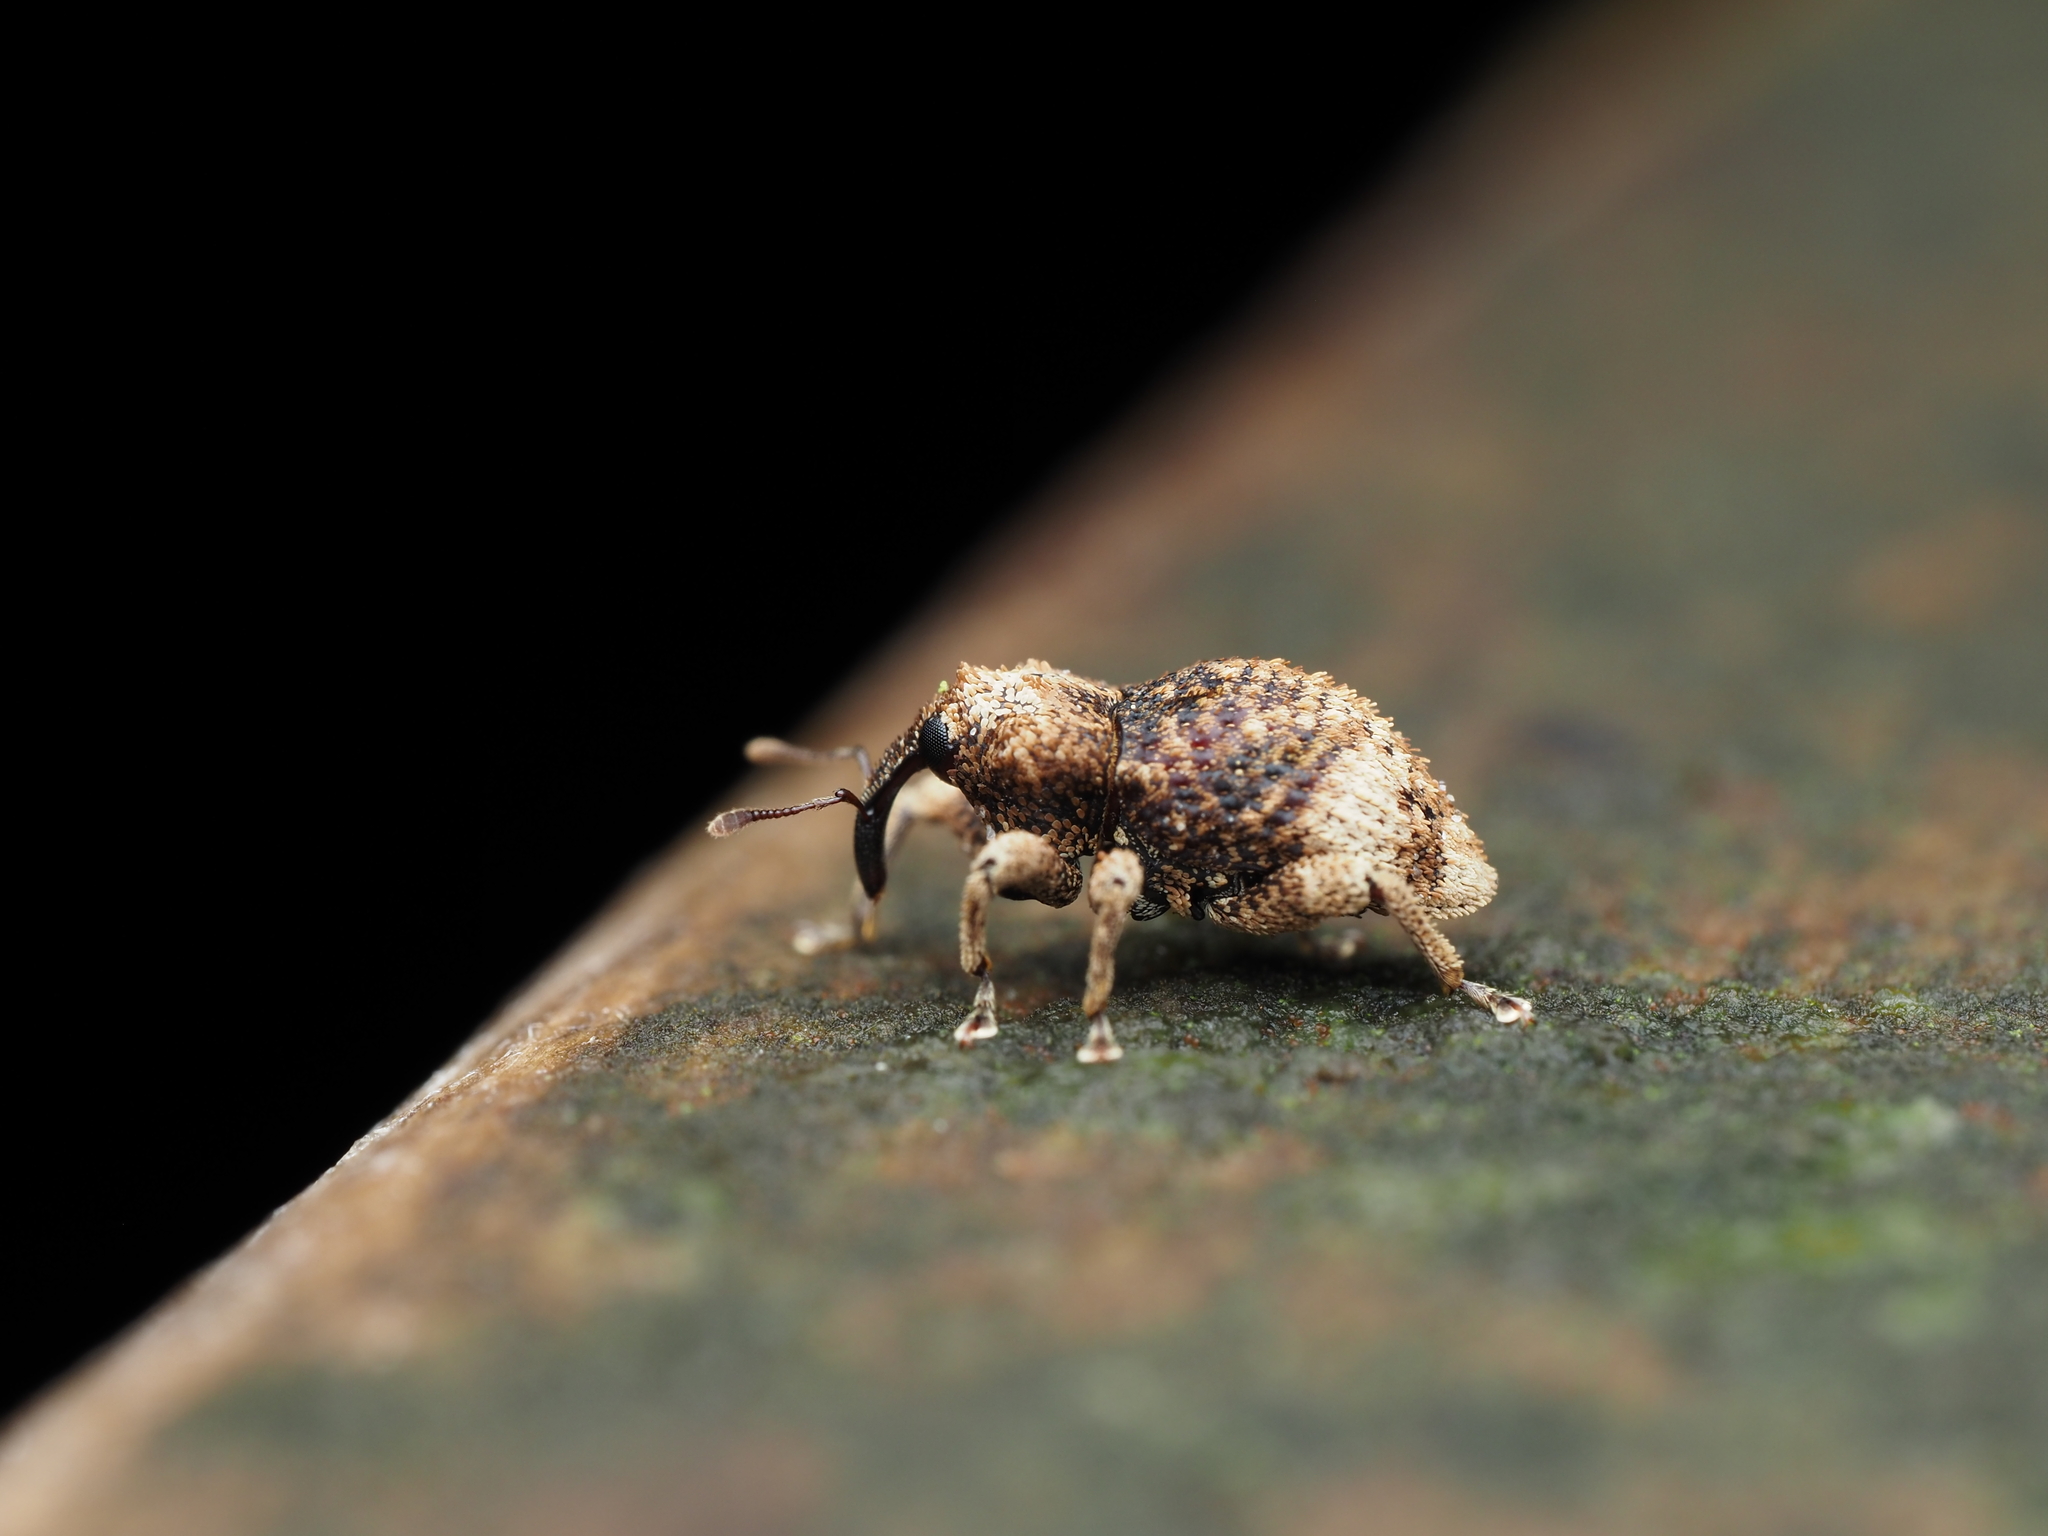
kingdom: Animalia
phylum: Arthropoda
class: Insecta
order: Coleoptera
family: Curculionidae
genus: Sympedius
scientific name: Sympedius testudo
